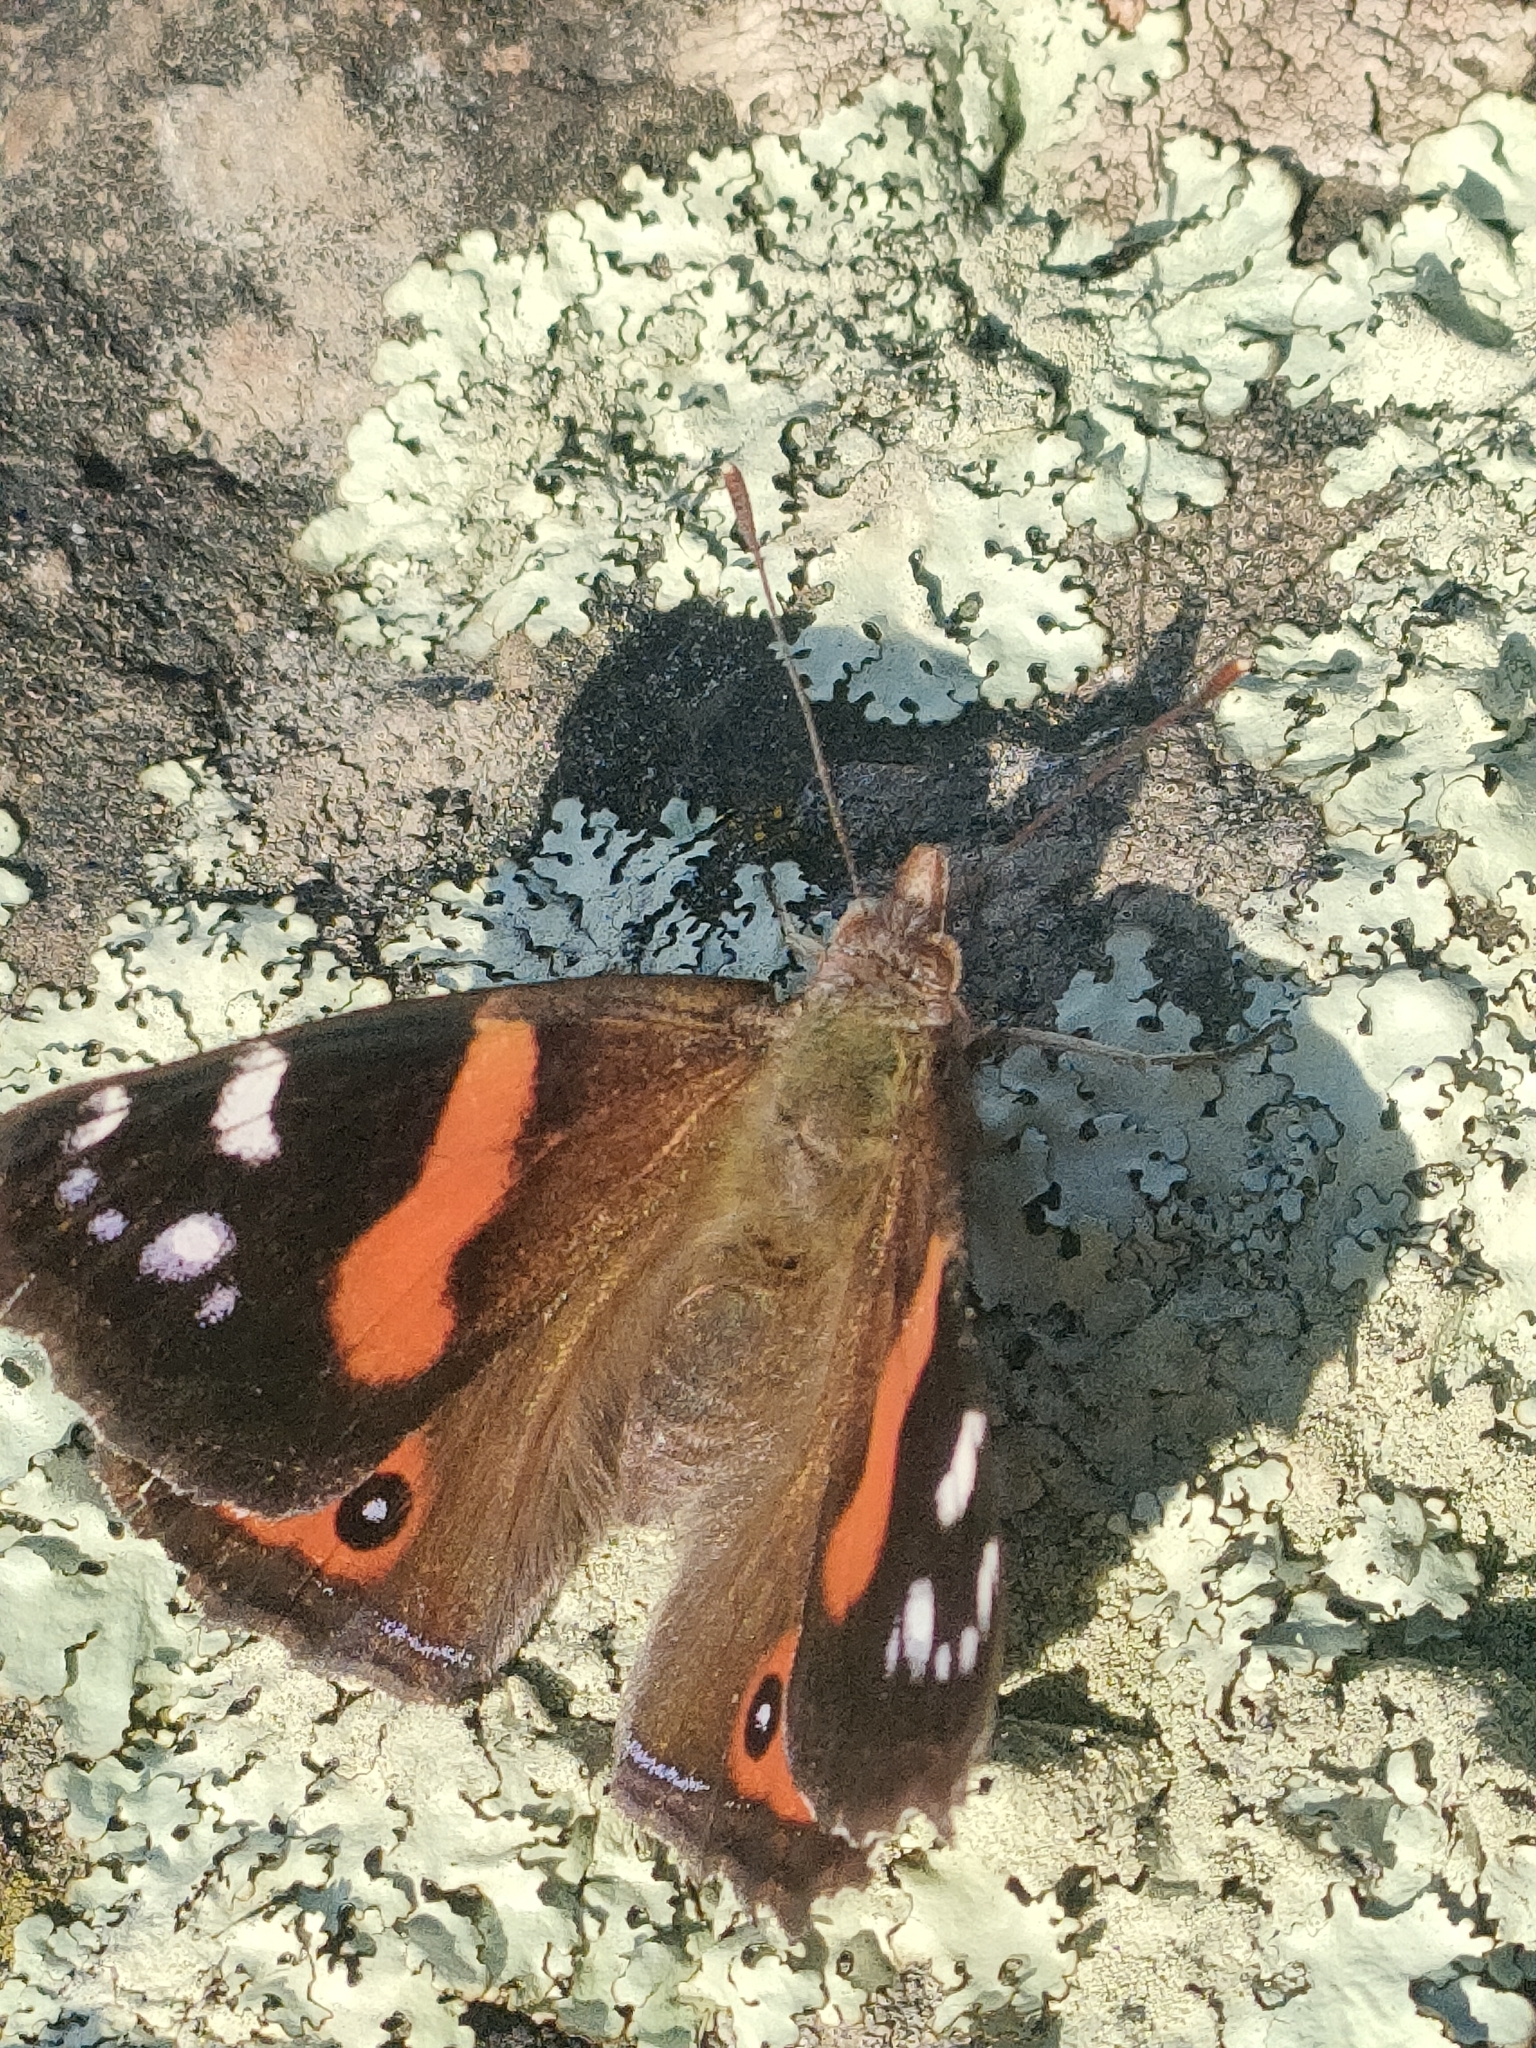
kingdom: Animalia
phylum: Arthropoda
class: Insecta
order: Lepidoptera
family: Nymphalidae
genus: Vanessa
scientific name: Vanessa gonerilla
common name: New zealand red admiral
